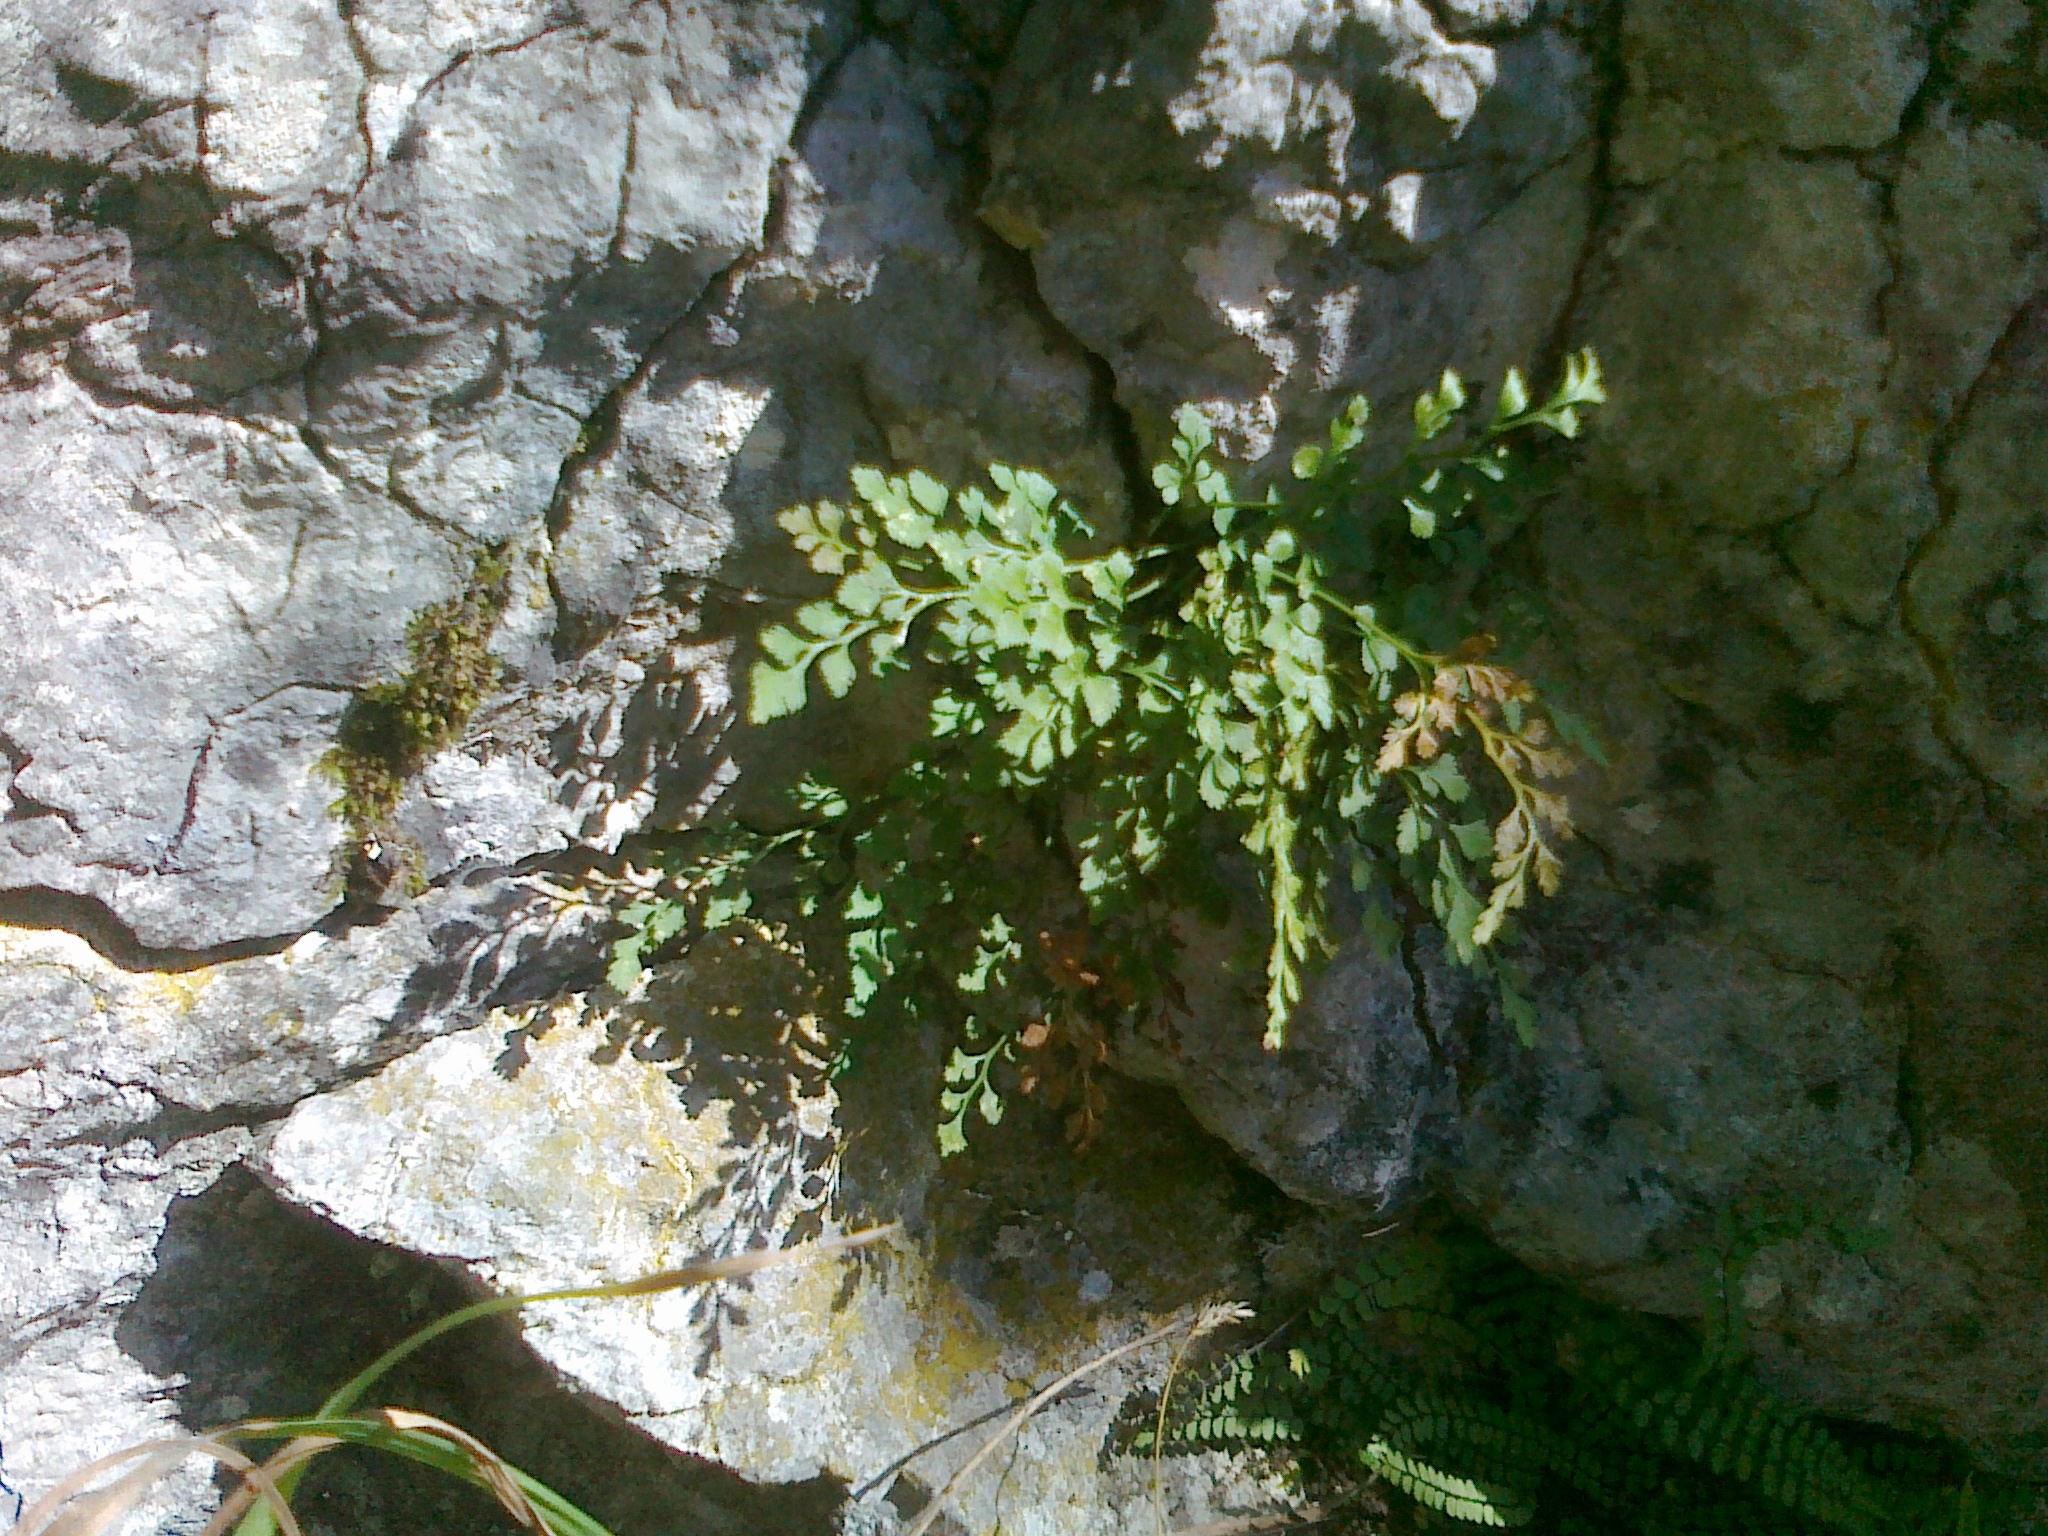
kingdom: Plantae
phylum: Tracheophyta
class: Polypodiopsida
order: Polypodiales
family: Aspleniaceae
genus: Asplenium
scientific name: Asplenium ruta-muraria
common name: Wall-rue
